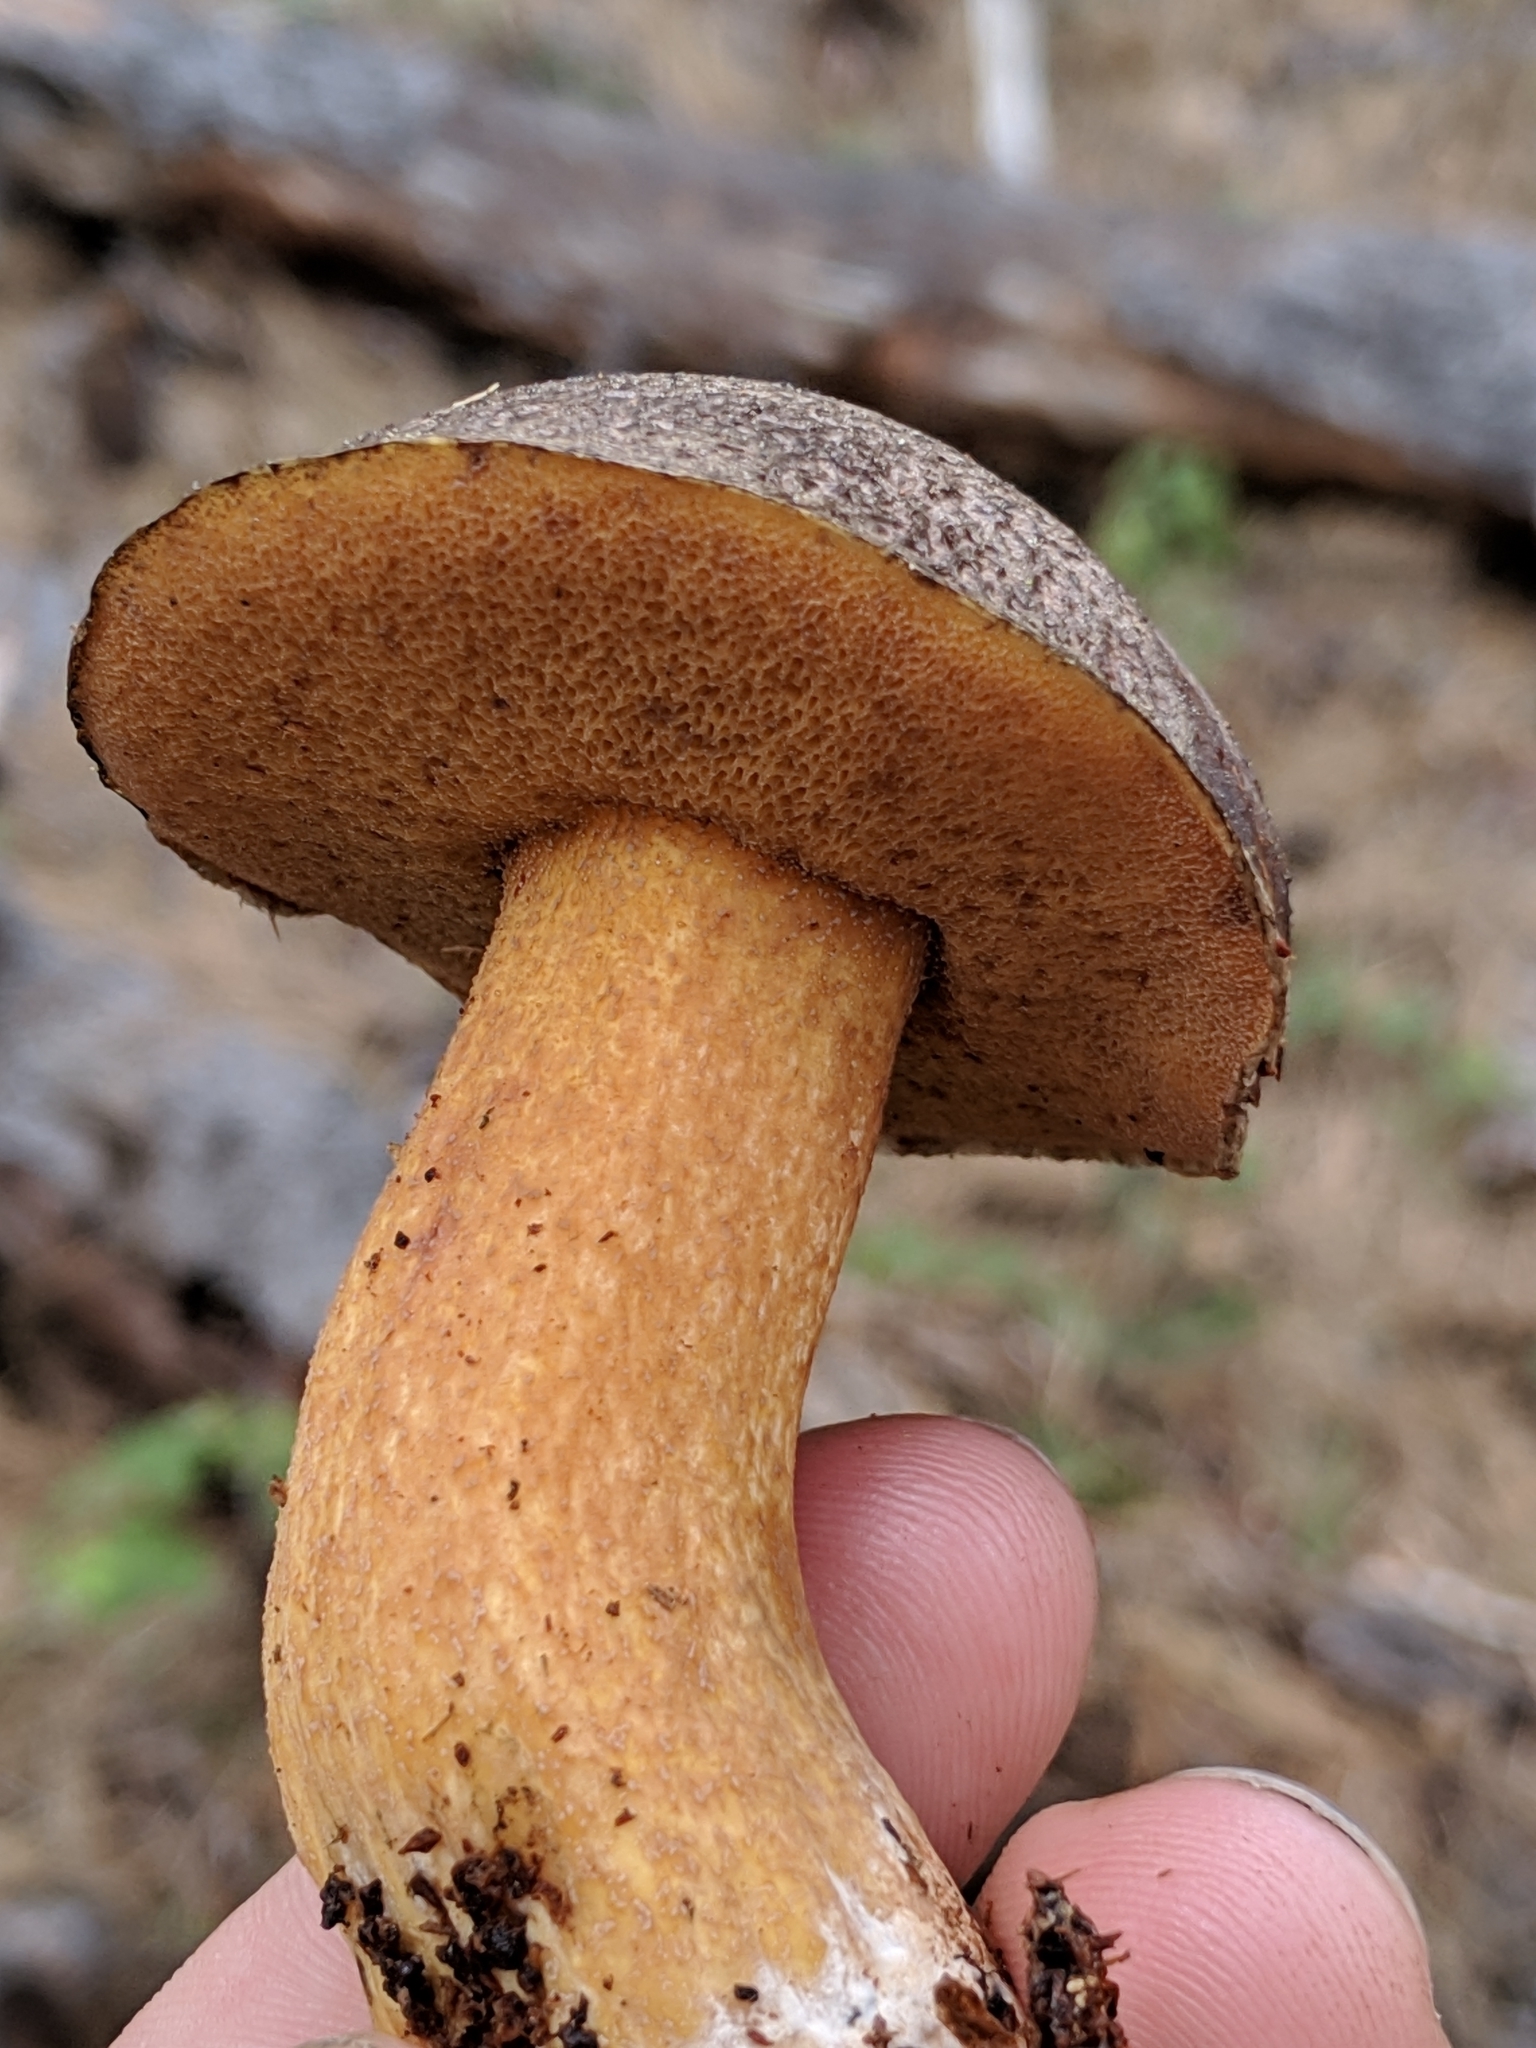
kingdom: Fungi
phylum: Basidiomycota
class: Agaricomycetes
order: Boletales
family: Suillaceae
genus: Suillus
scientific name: Suillus fuscotomentosus
